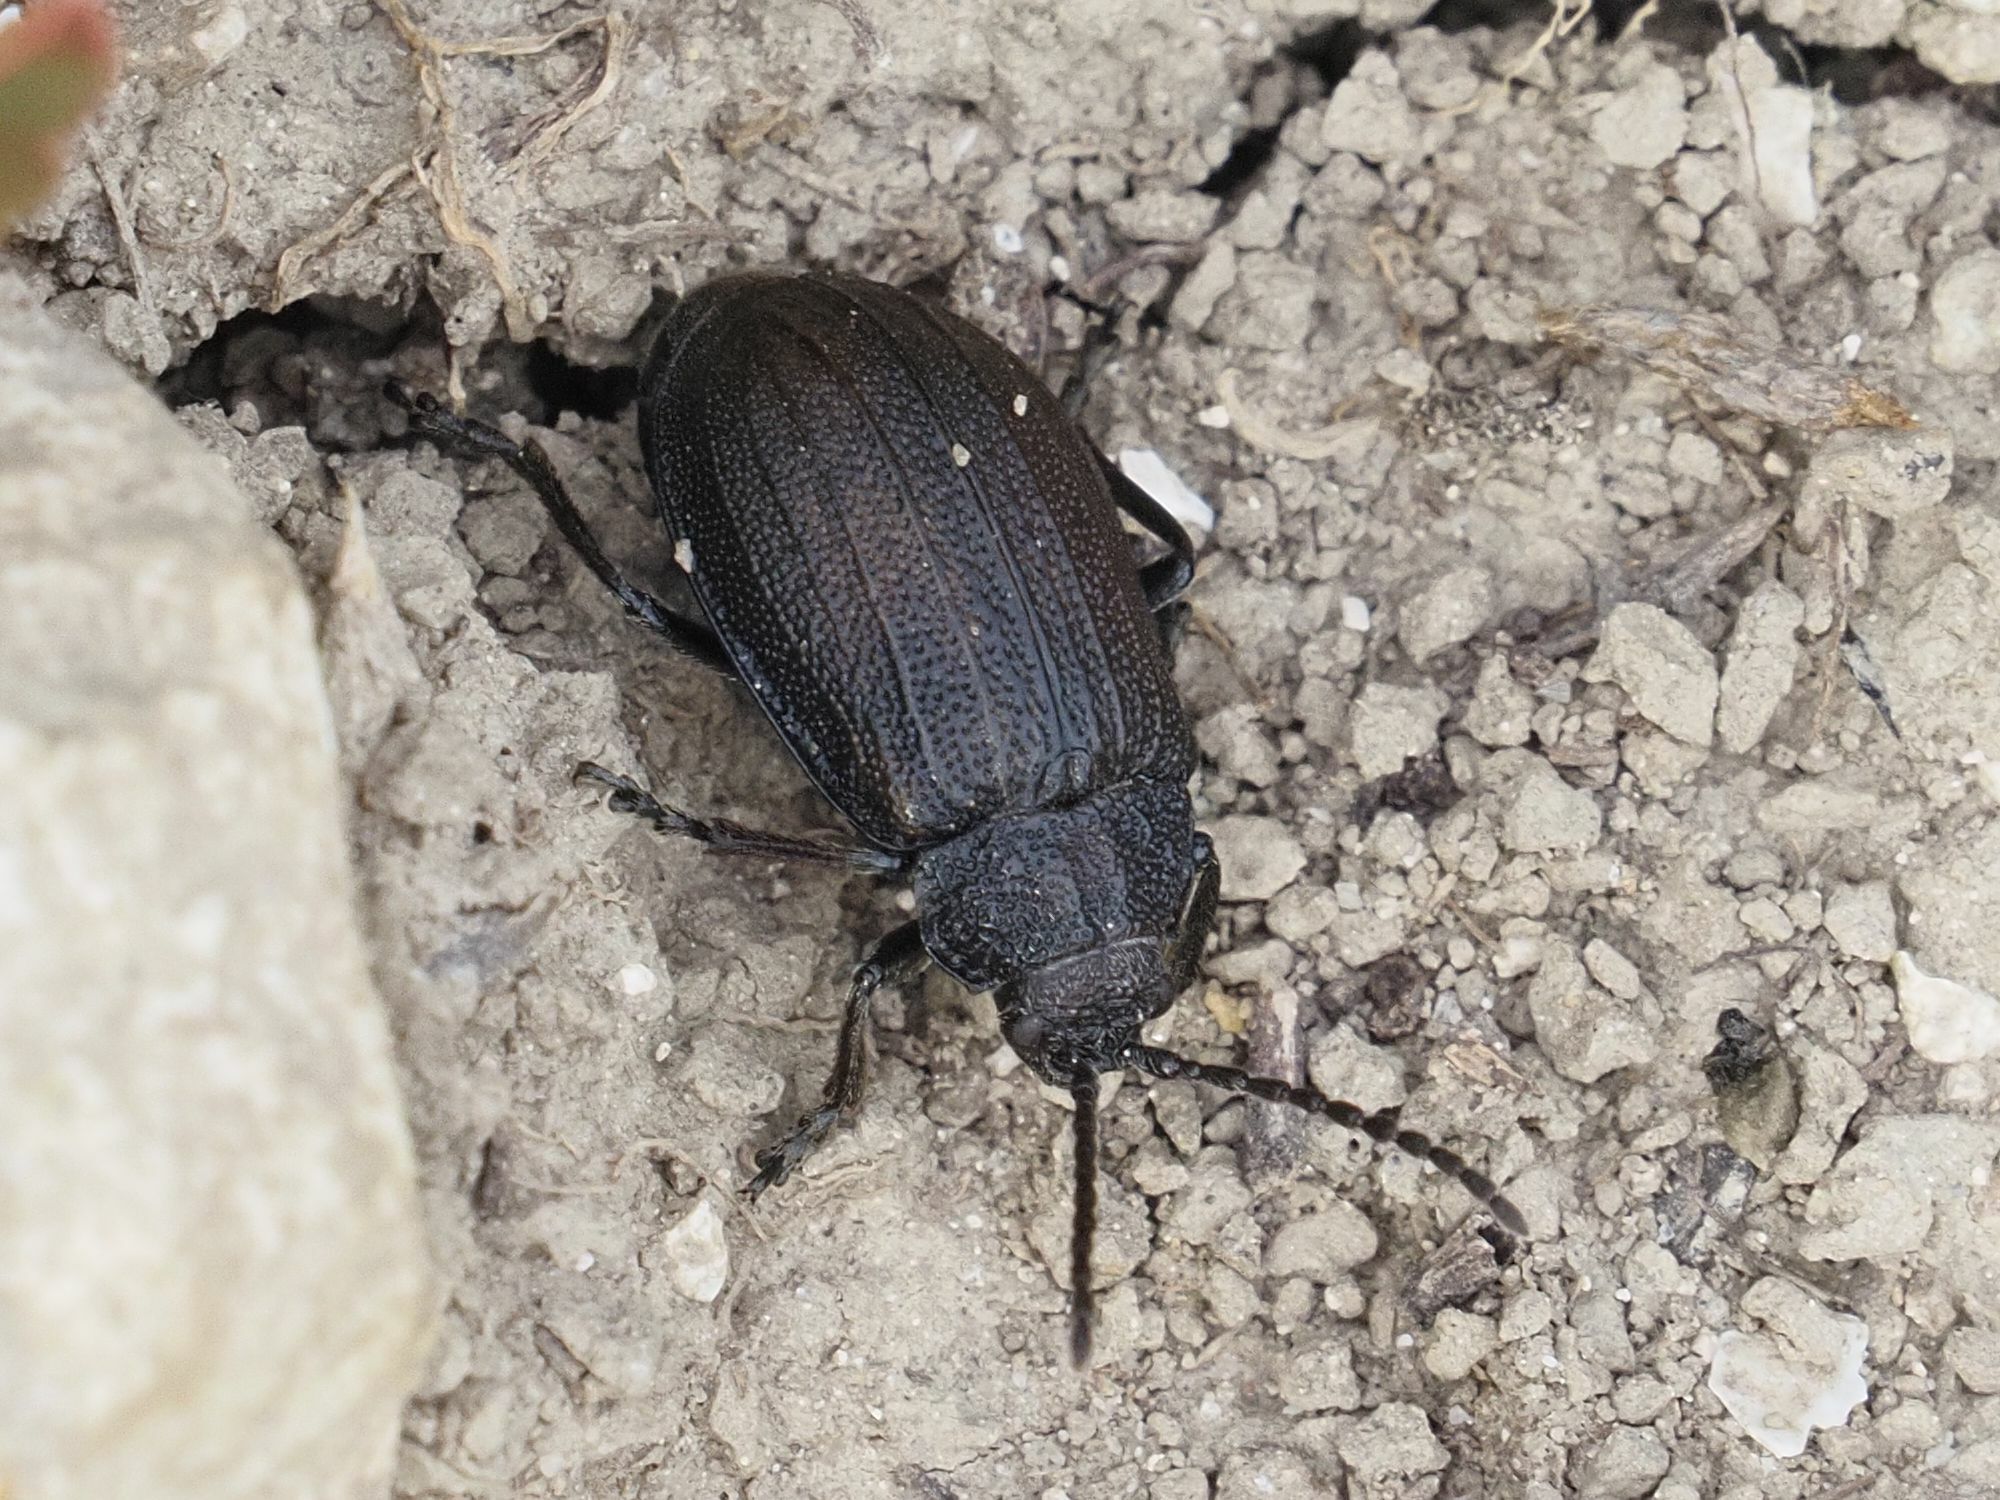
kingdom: Animalia
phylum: Arthropoda
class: Insecta
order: Coleoptera
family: Chrysomelidae
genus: Galeruca
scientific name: Galeruca pomonae
